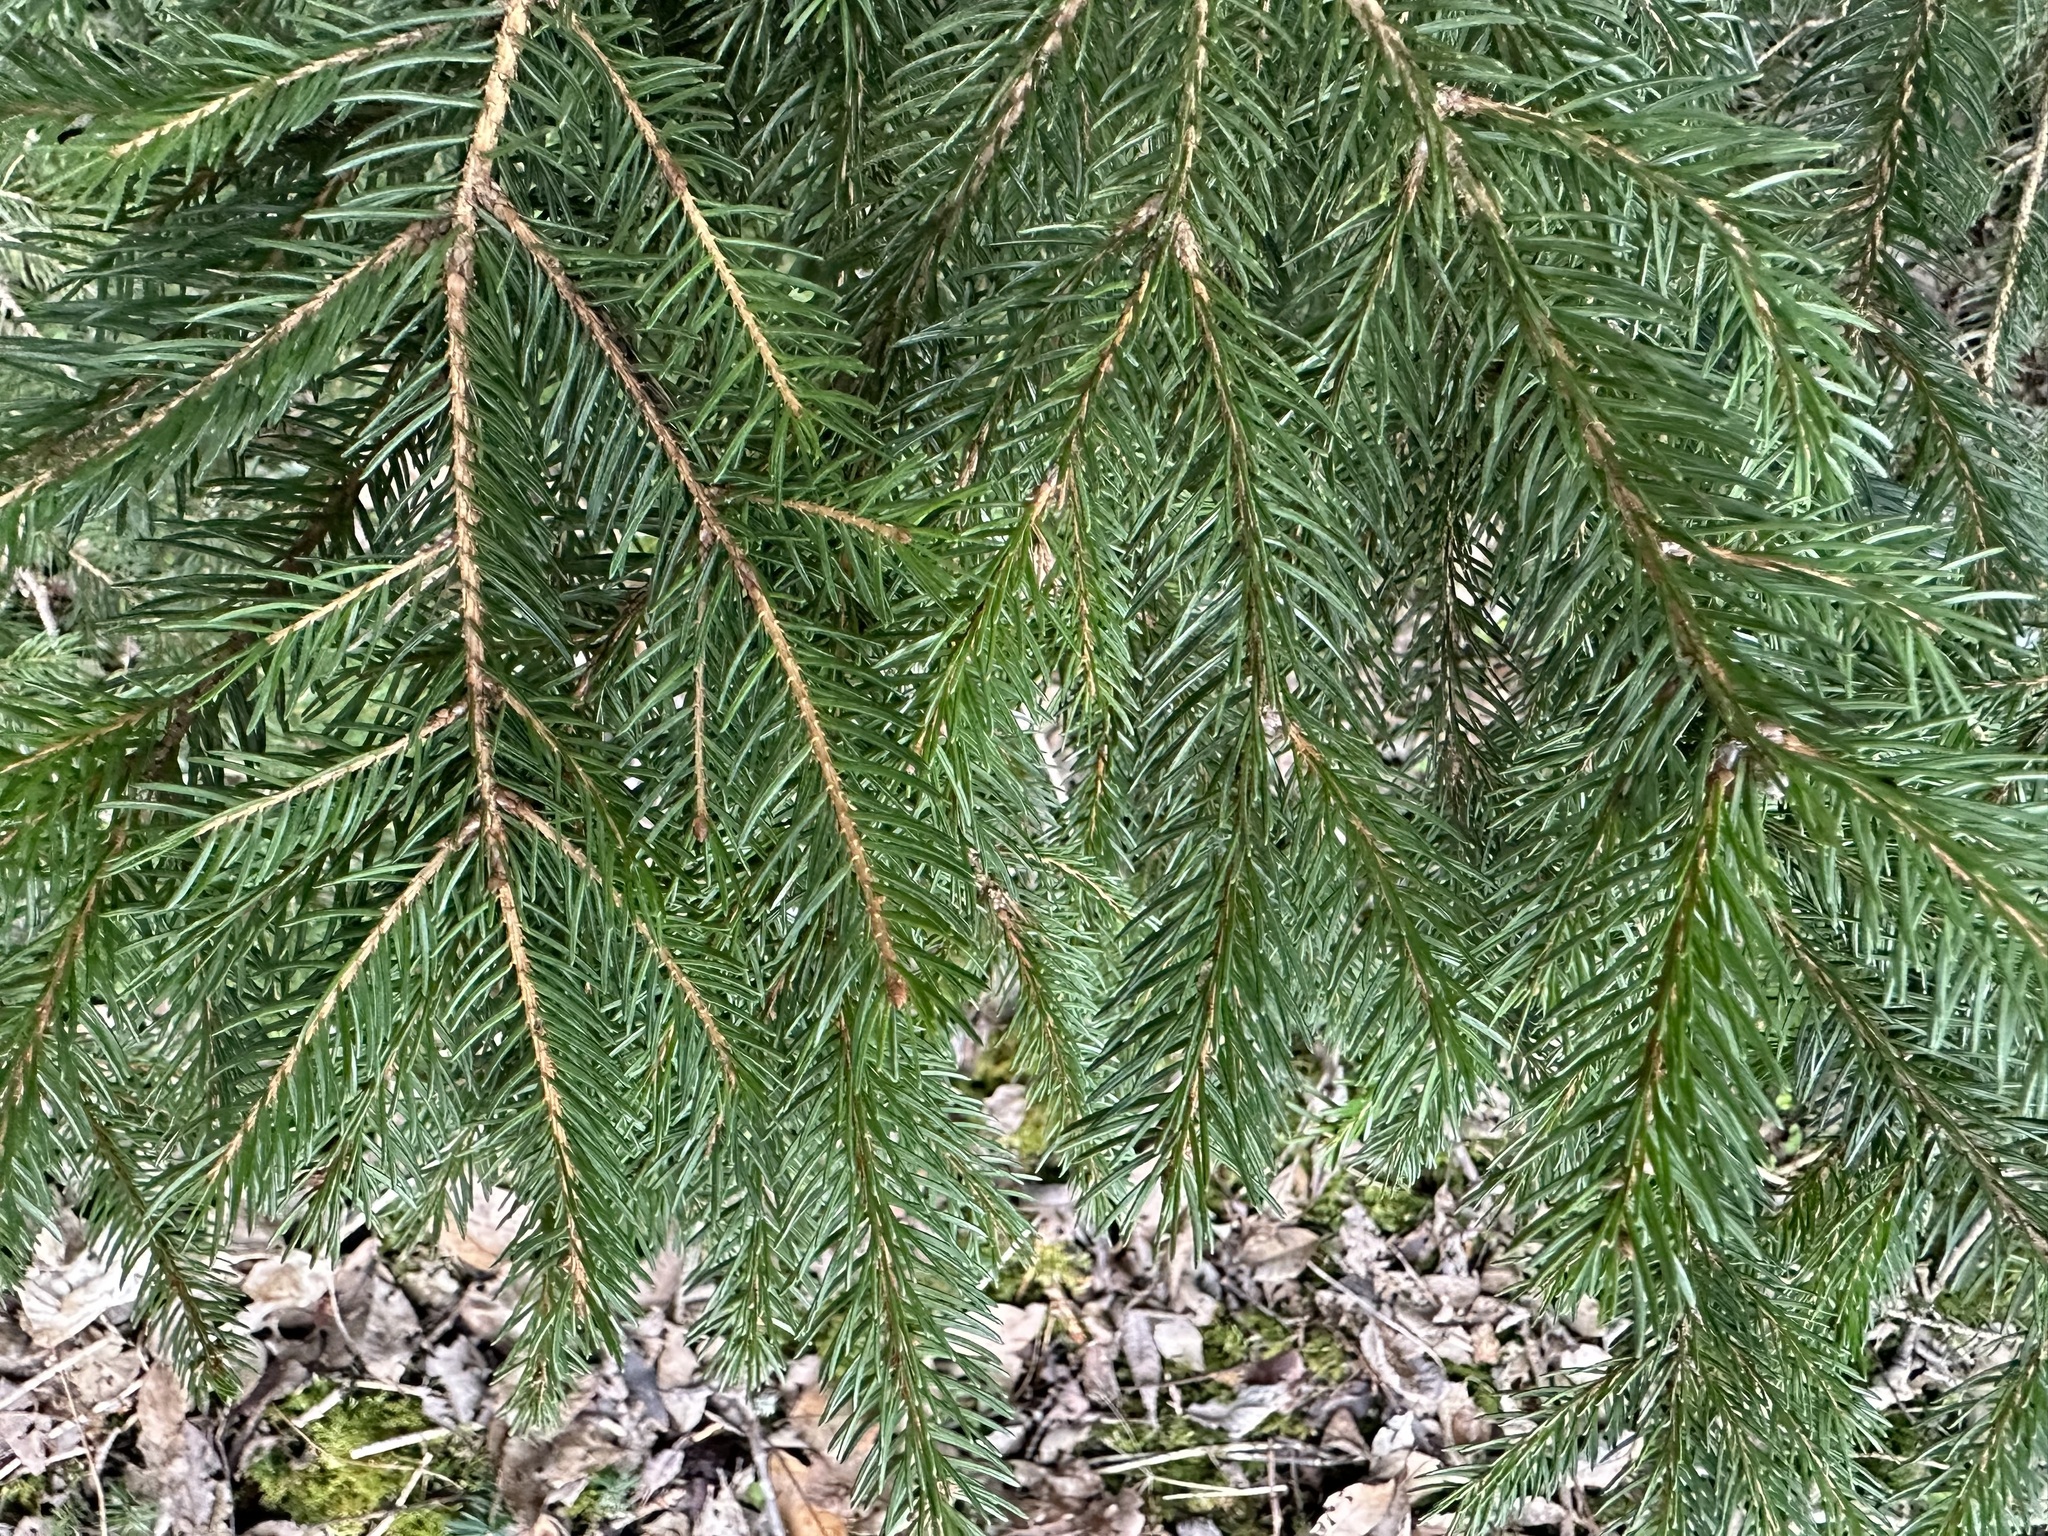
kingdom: Plantae
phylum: Tracheophyta
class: Pinopsida
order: Pinales
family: Pinaceae
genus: Picea
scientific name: Picea abies
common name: Norway spruce
